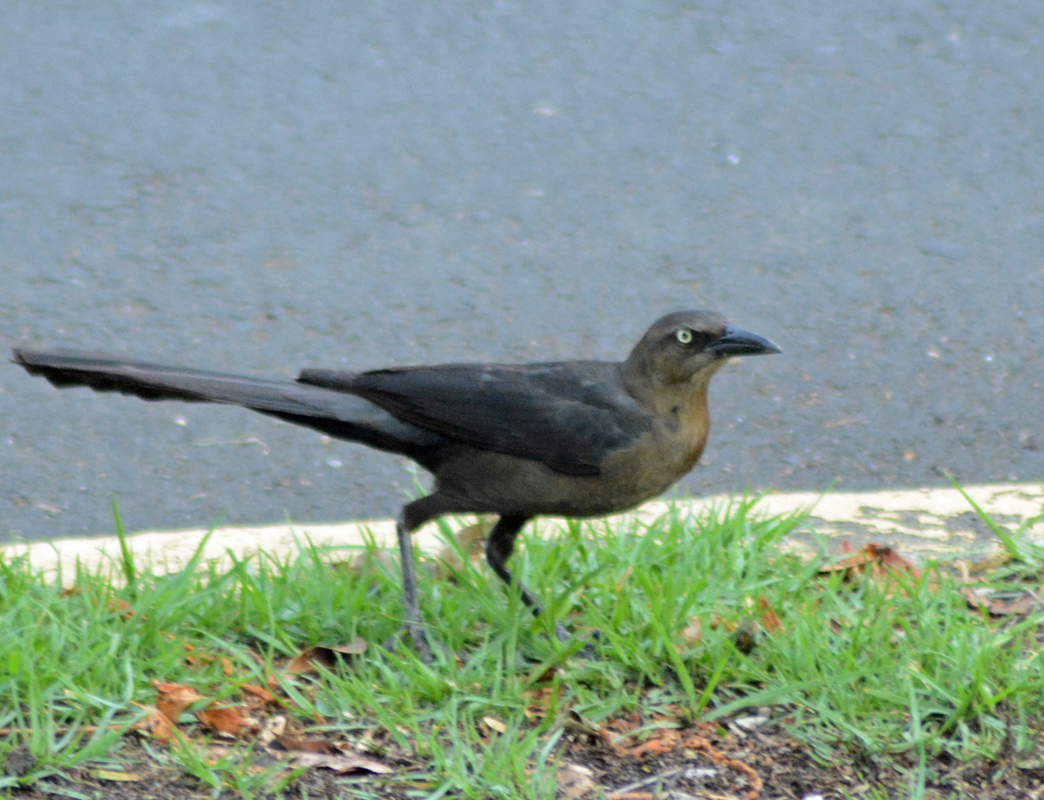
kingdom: Animalia
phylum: Chordata
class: Aves
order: Passeriformes
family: Icteridae
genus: Quiscalus
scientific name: Quiscalus mexicanus
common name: Great-tailed grackle
